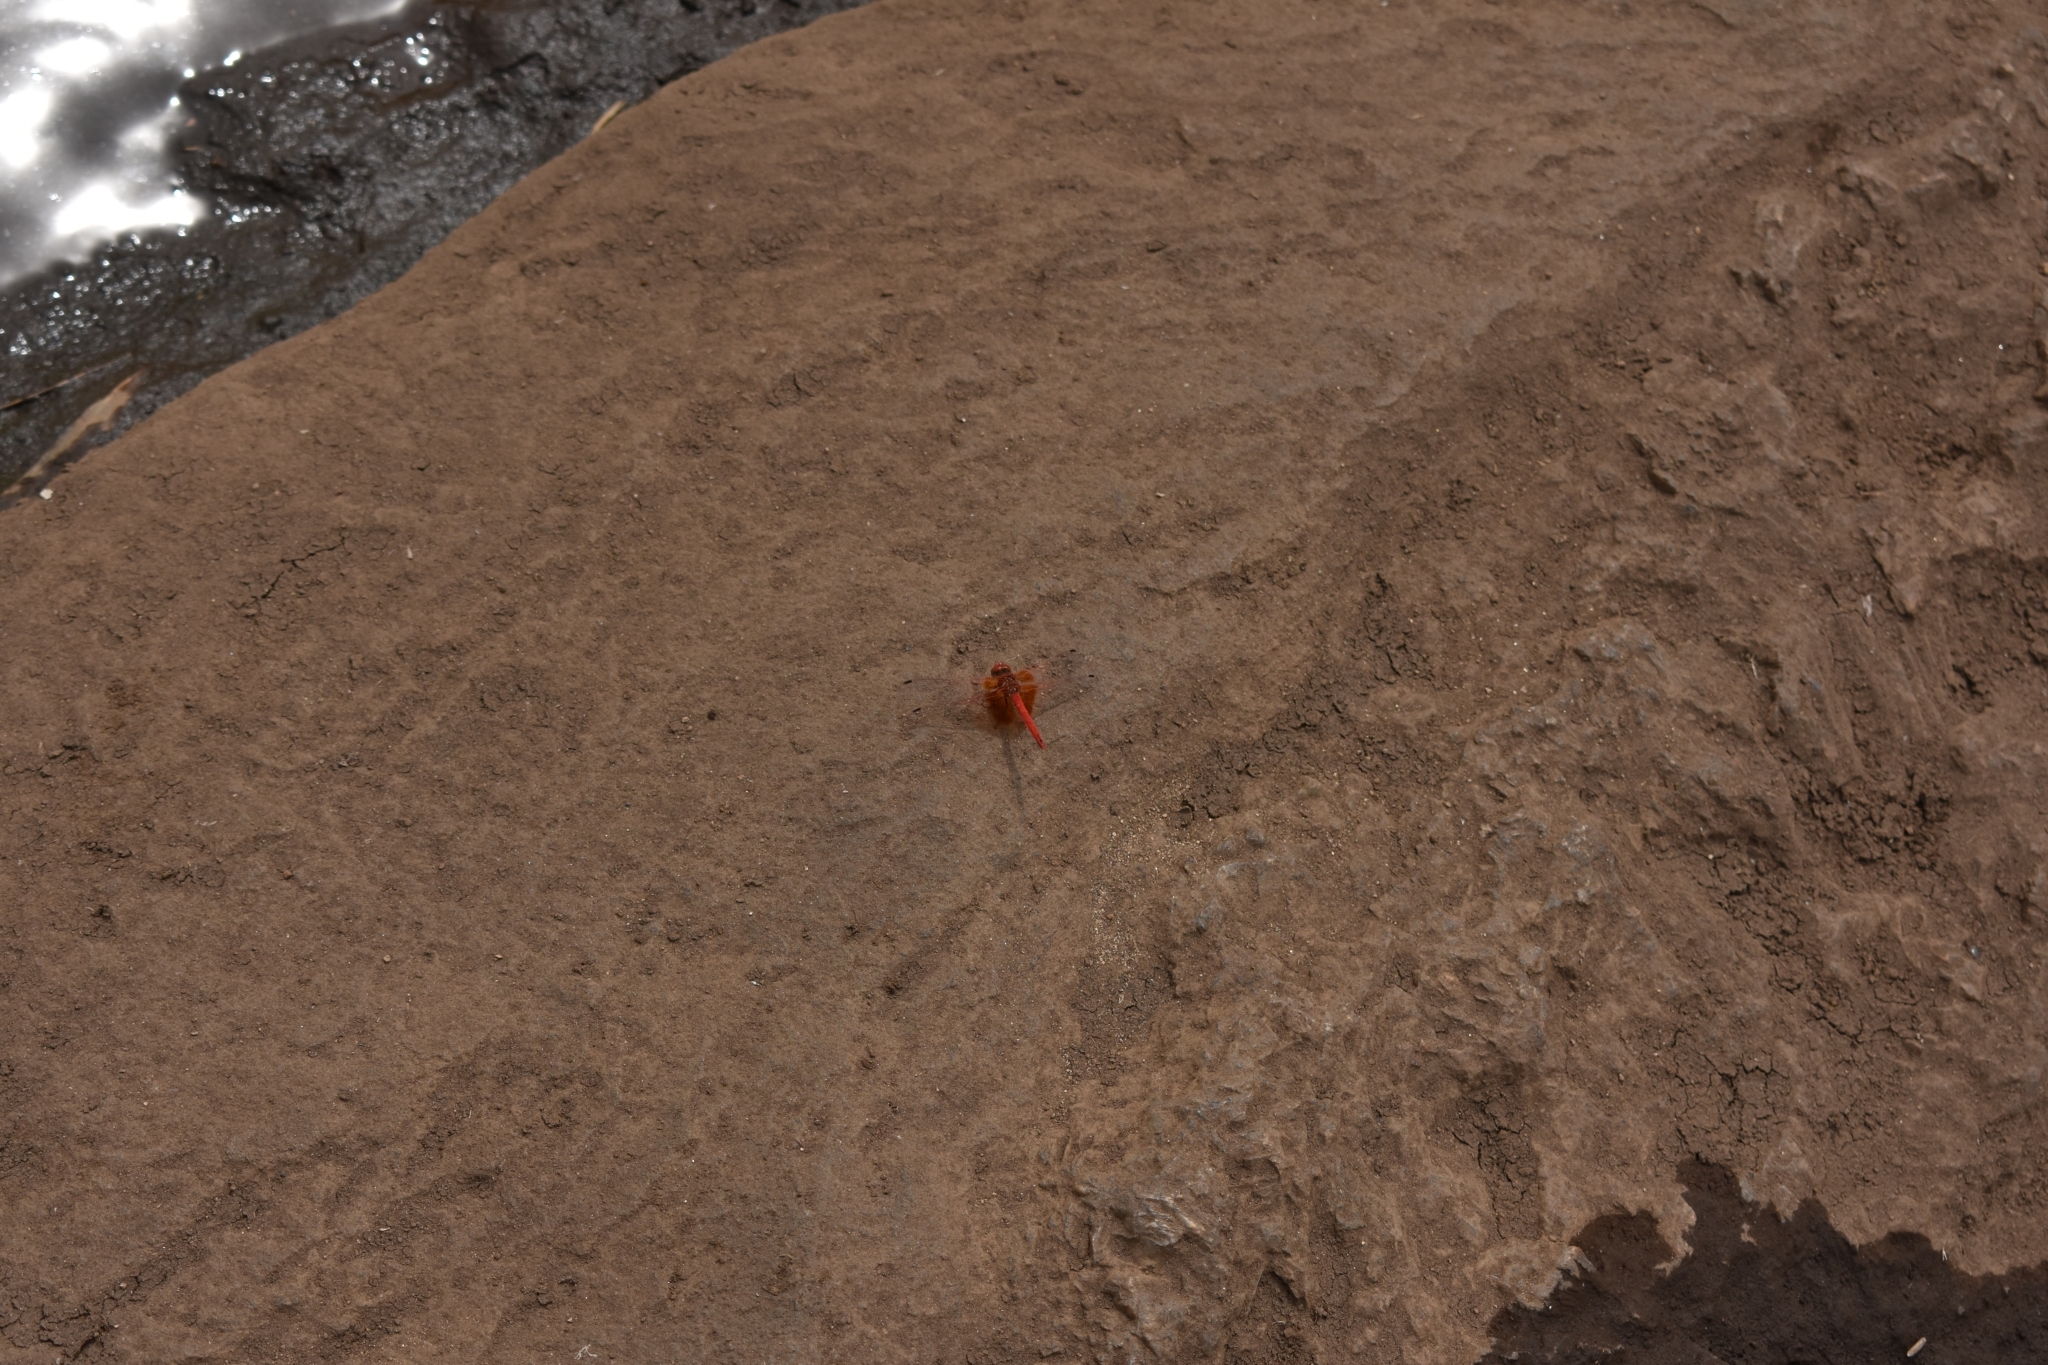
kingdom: Animalia
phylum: Arthropoda
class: Insecta
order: Odonata
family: Libellulidae
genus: Trithemis
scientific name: Trithemis kirbyi
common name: Kirby's dropwing
